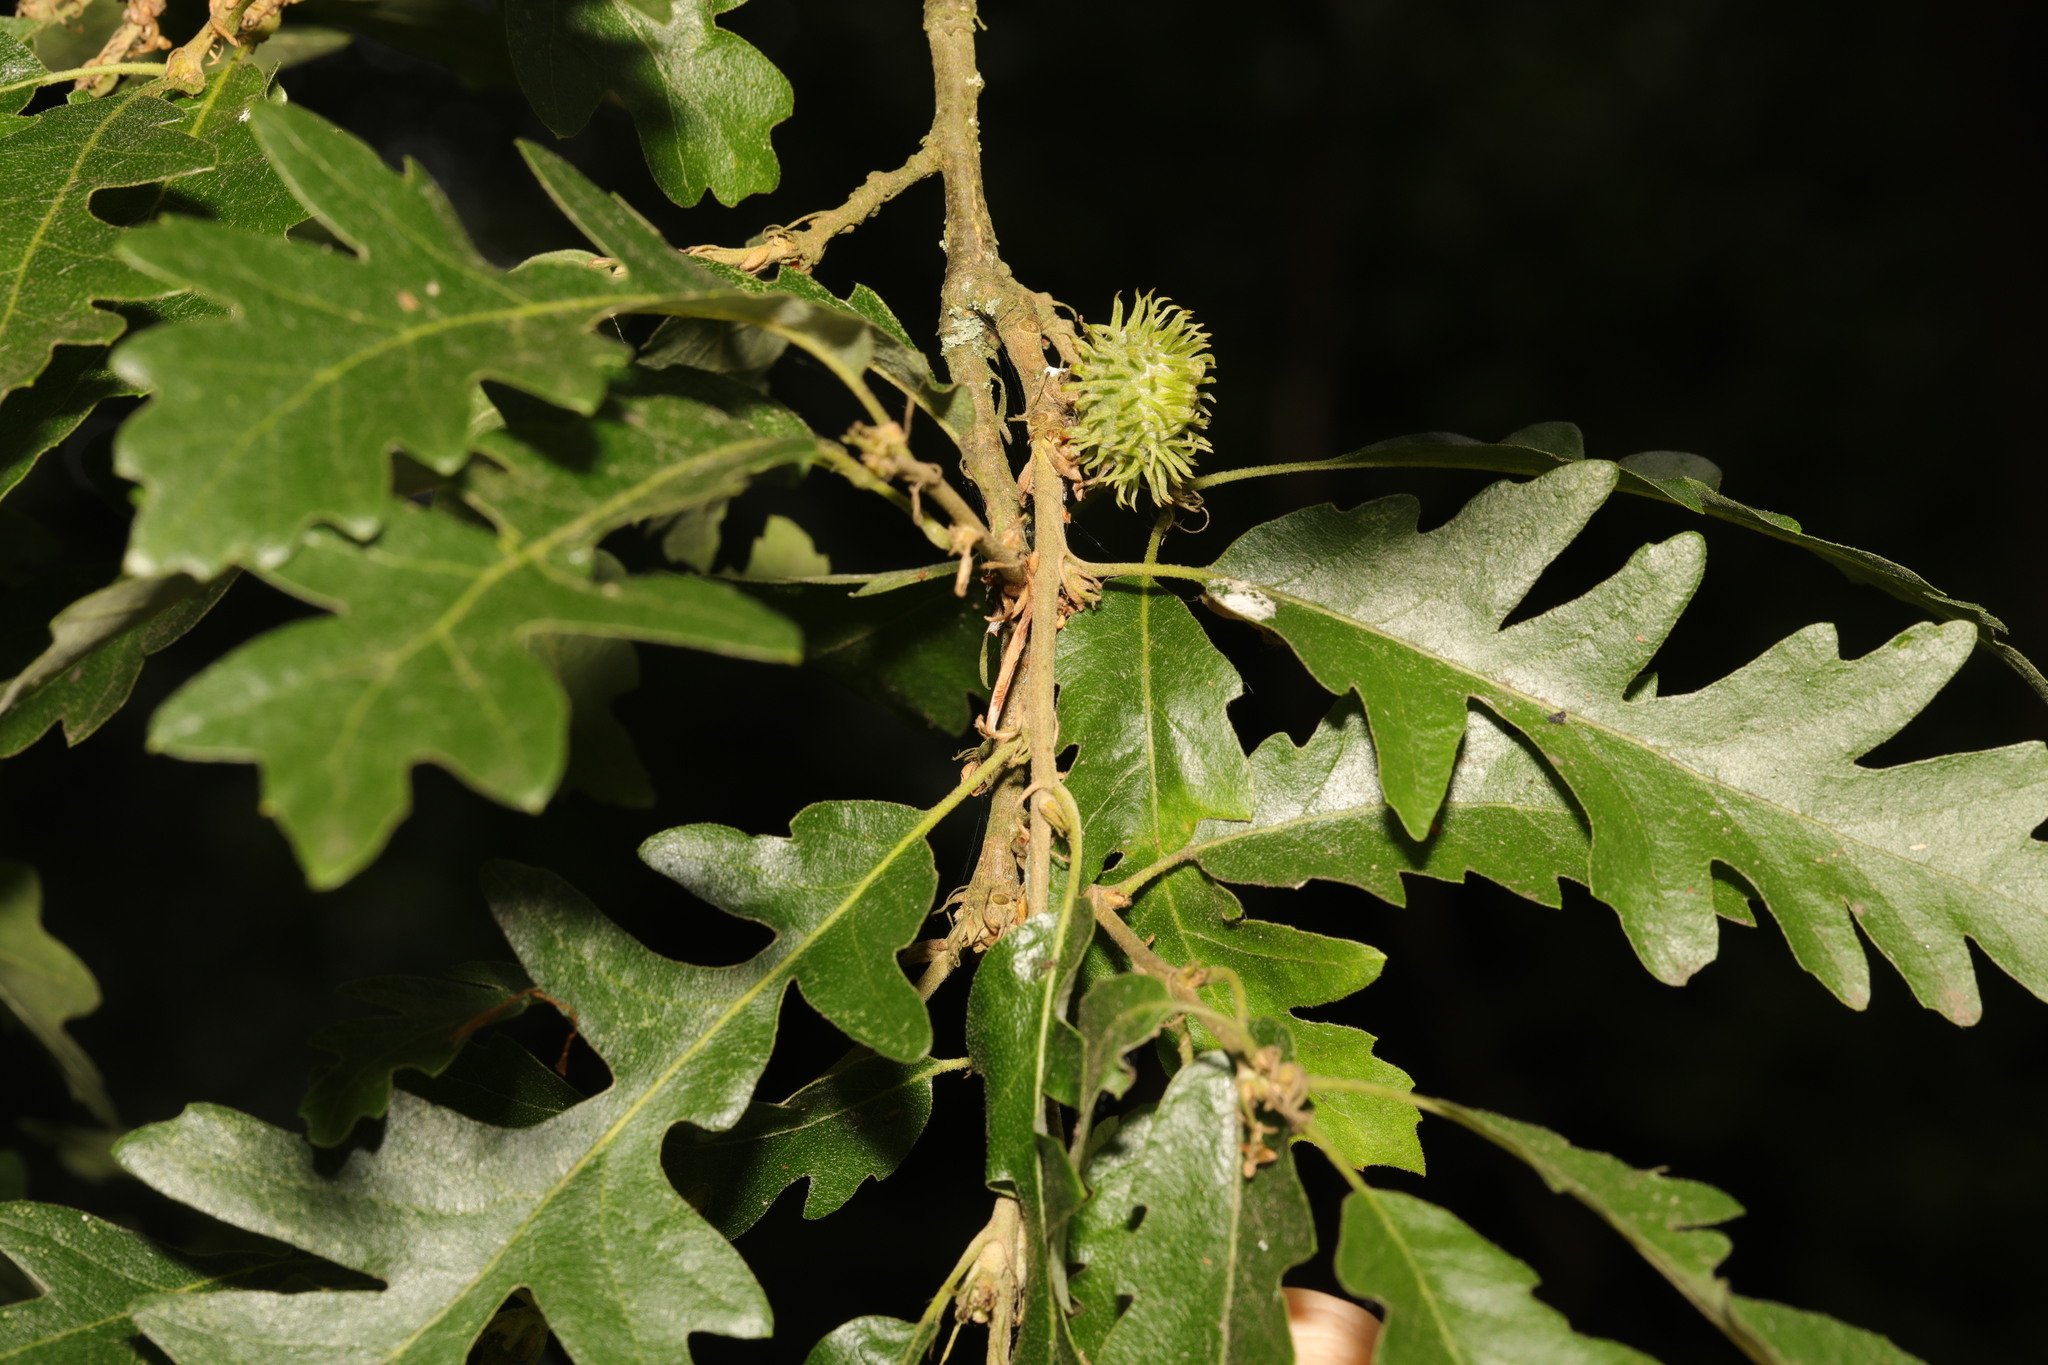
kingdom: Plantae
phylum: Tracheophyta
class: Magnoliopsida
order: Fagales
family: Fagaceae
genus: Quercus
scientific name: Quercus cerris
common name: Turkey oak
